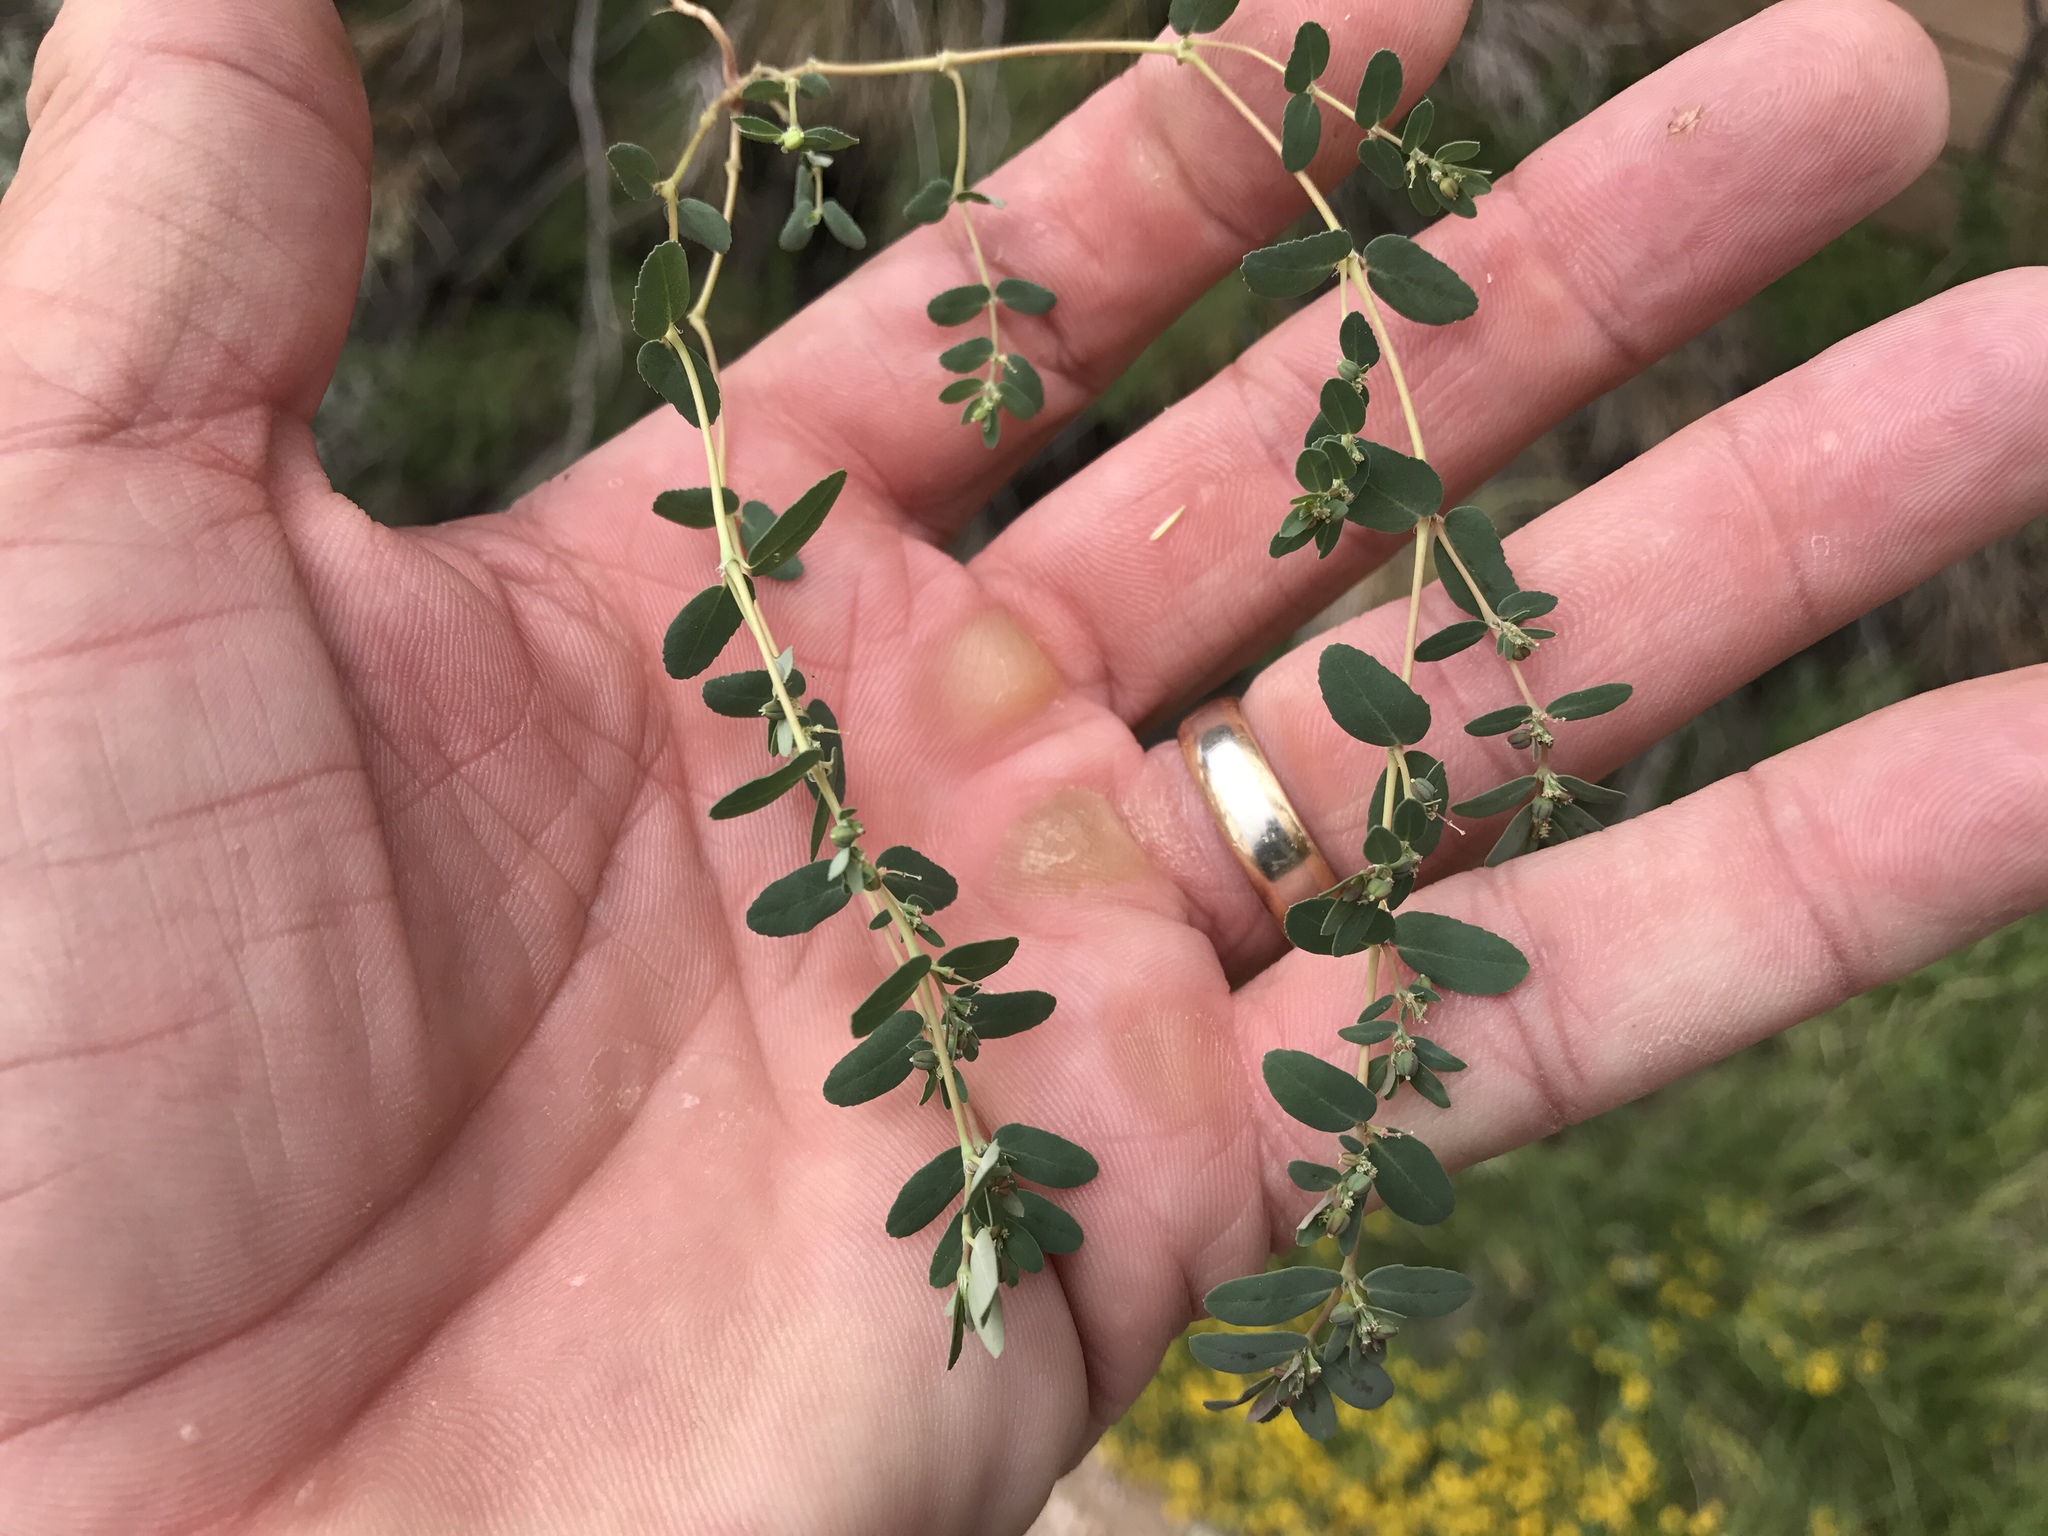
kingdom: Plantae
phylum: Tracheophyta
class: Magnoliopsida
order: Malpighiales
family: Euphorbiaceae
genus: Euphorbia
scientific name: Euphorbia abramsiana
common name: Abram's spurge
